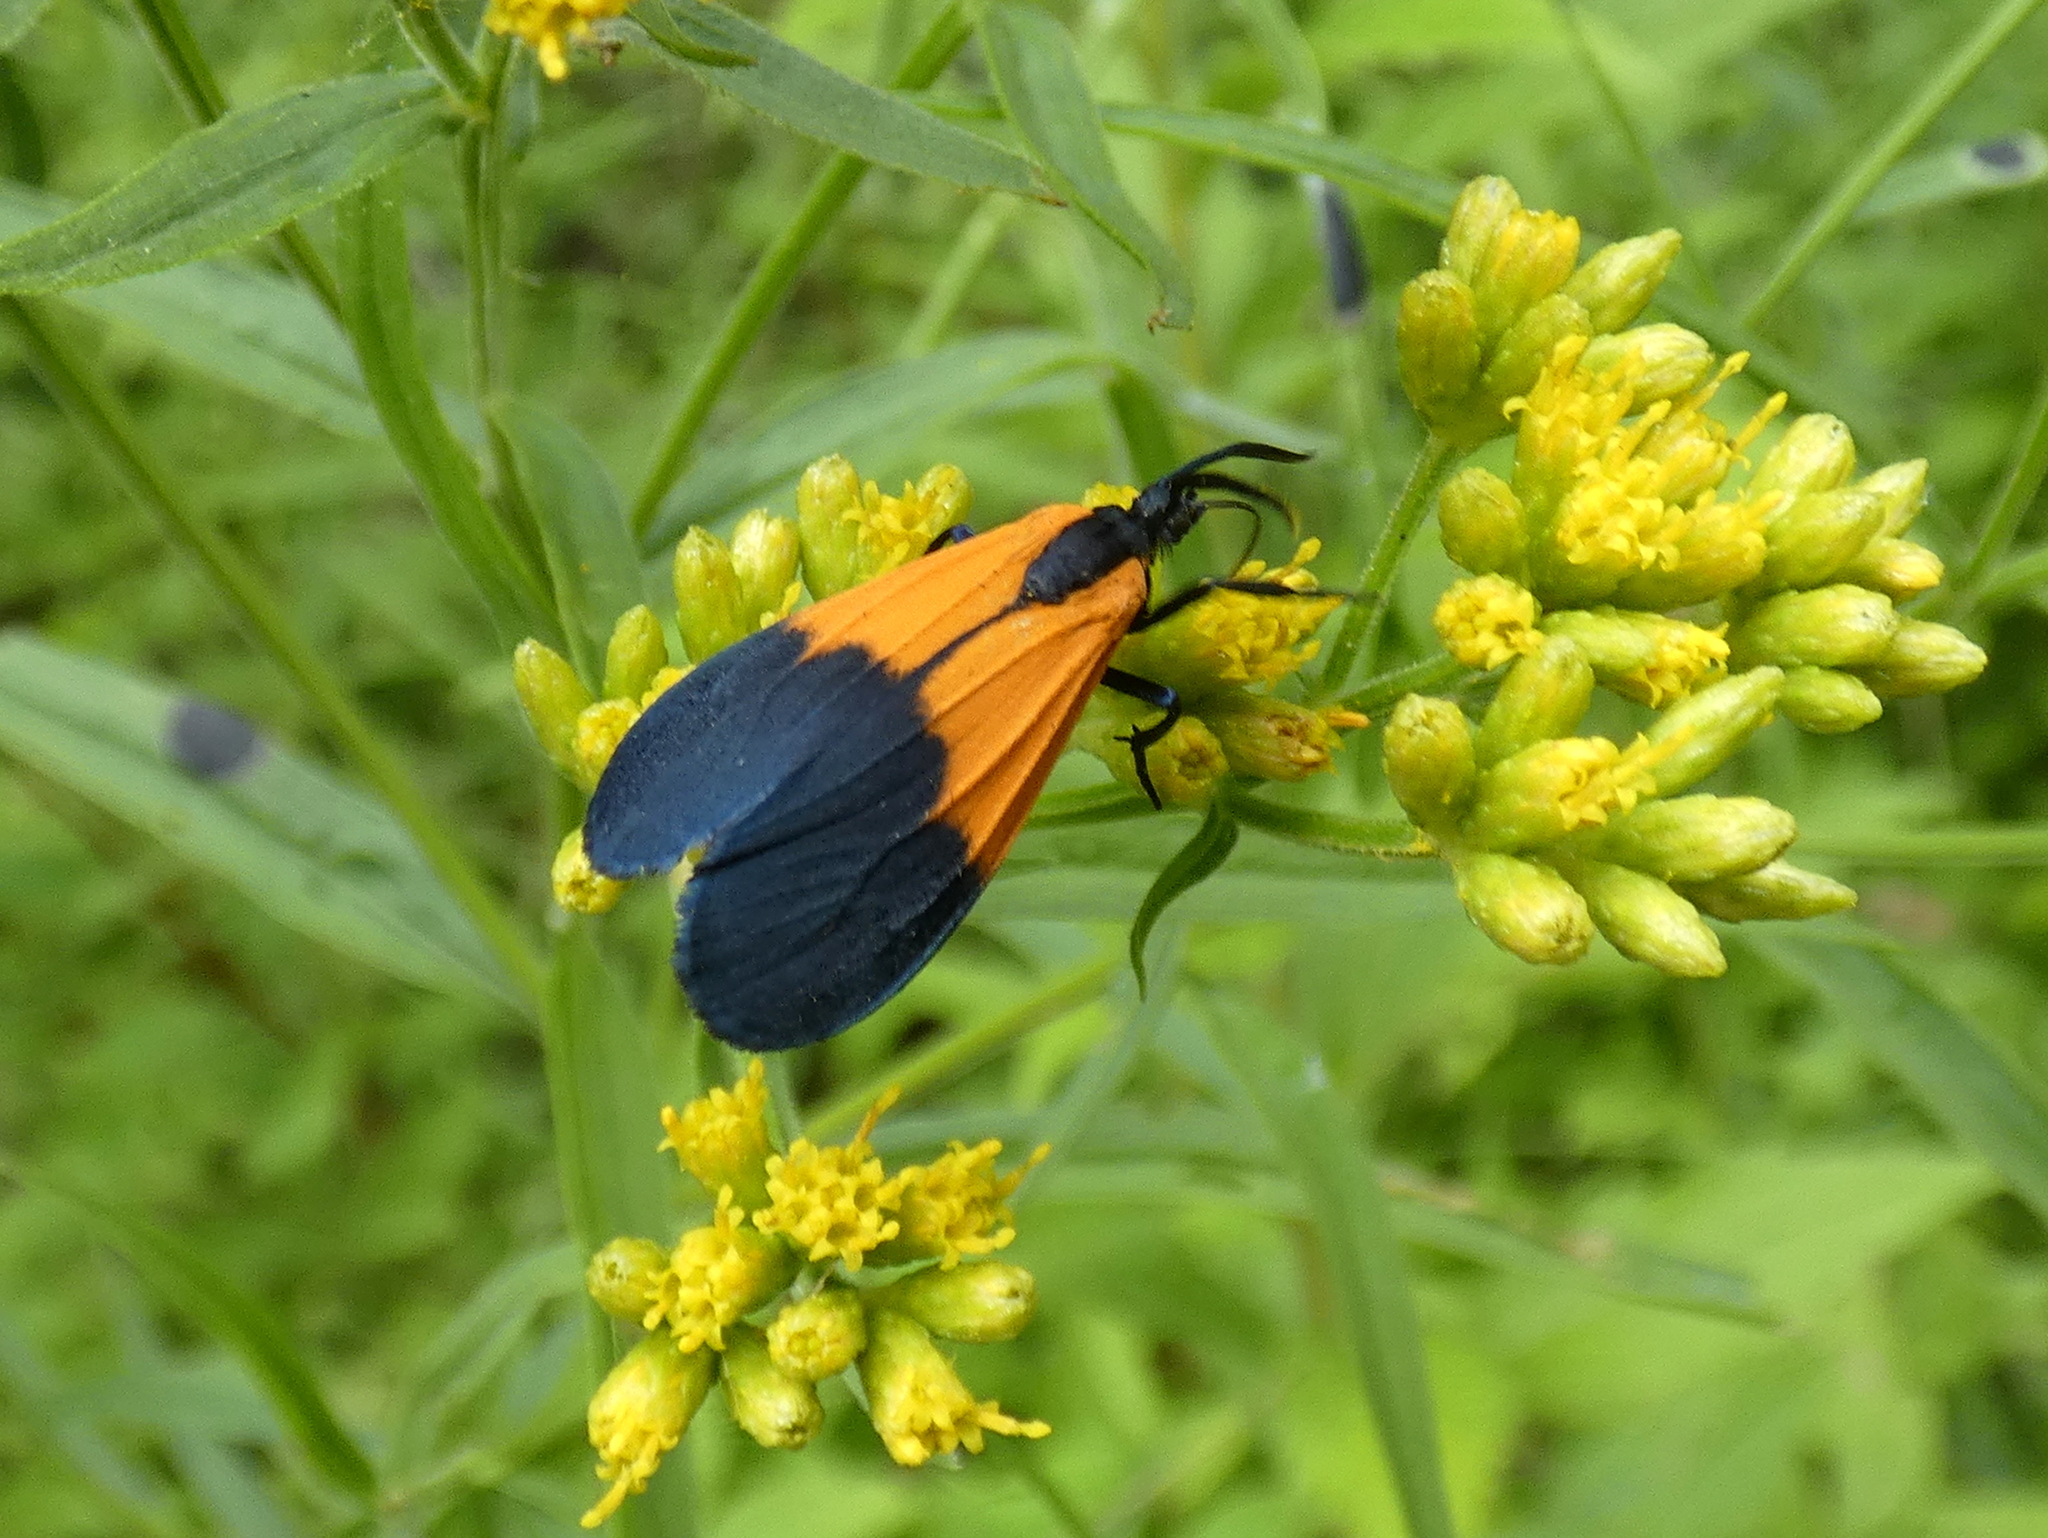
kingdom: Animalia
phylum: Arthropoda
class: Insecta
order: Lepidoptera
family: Erebidae
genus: Lycomorpha
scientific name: Lycomorpha pholus
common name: Black-and-yellow lichen moth
